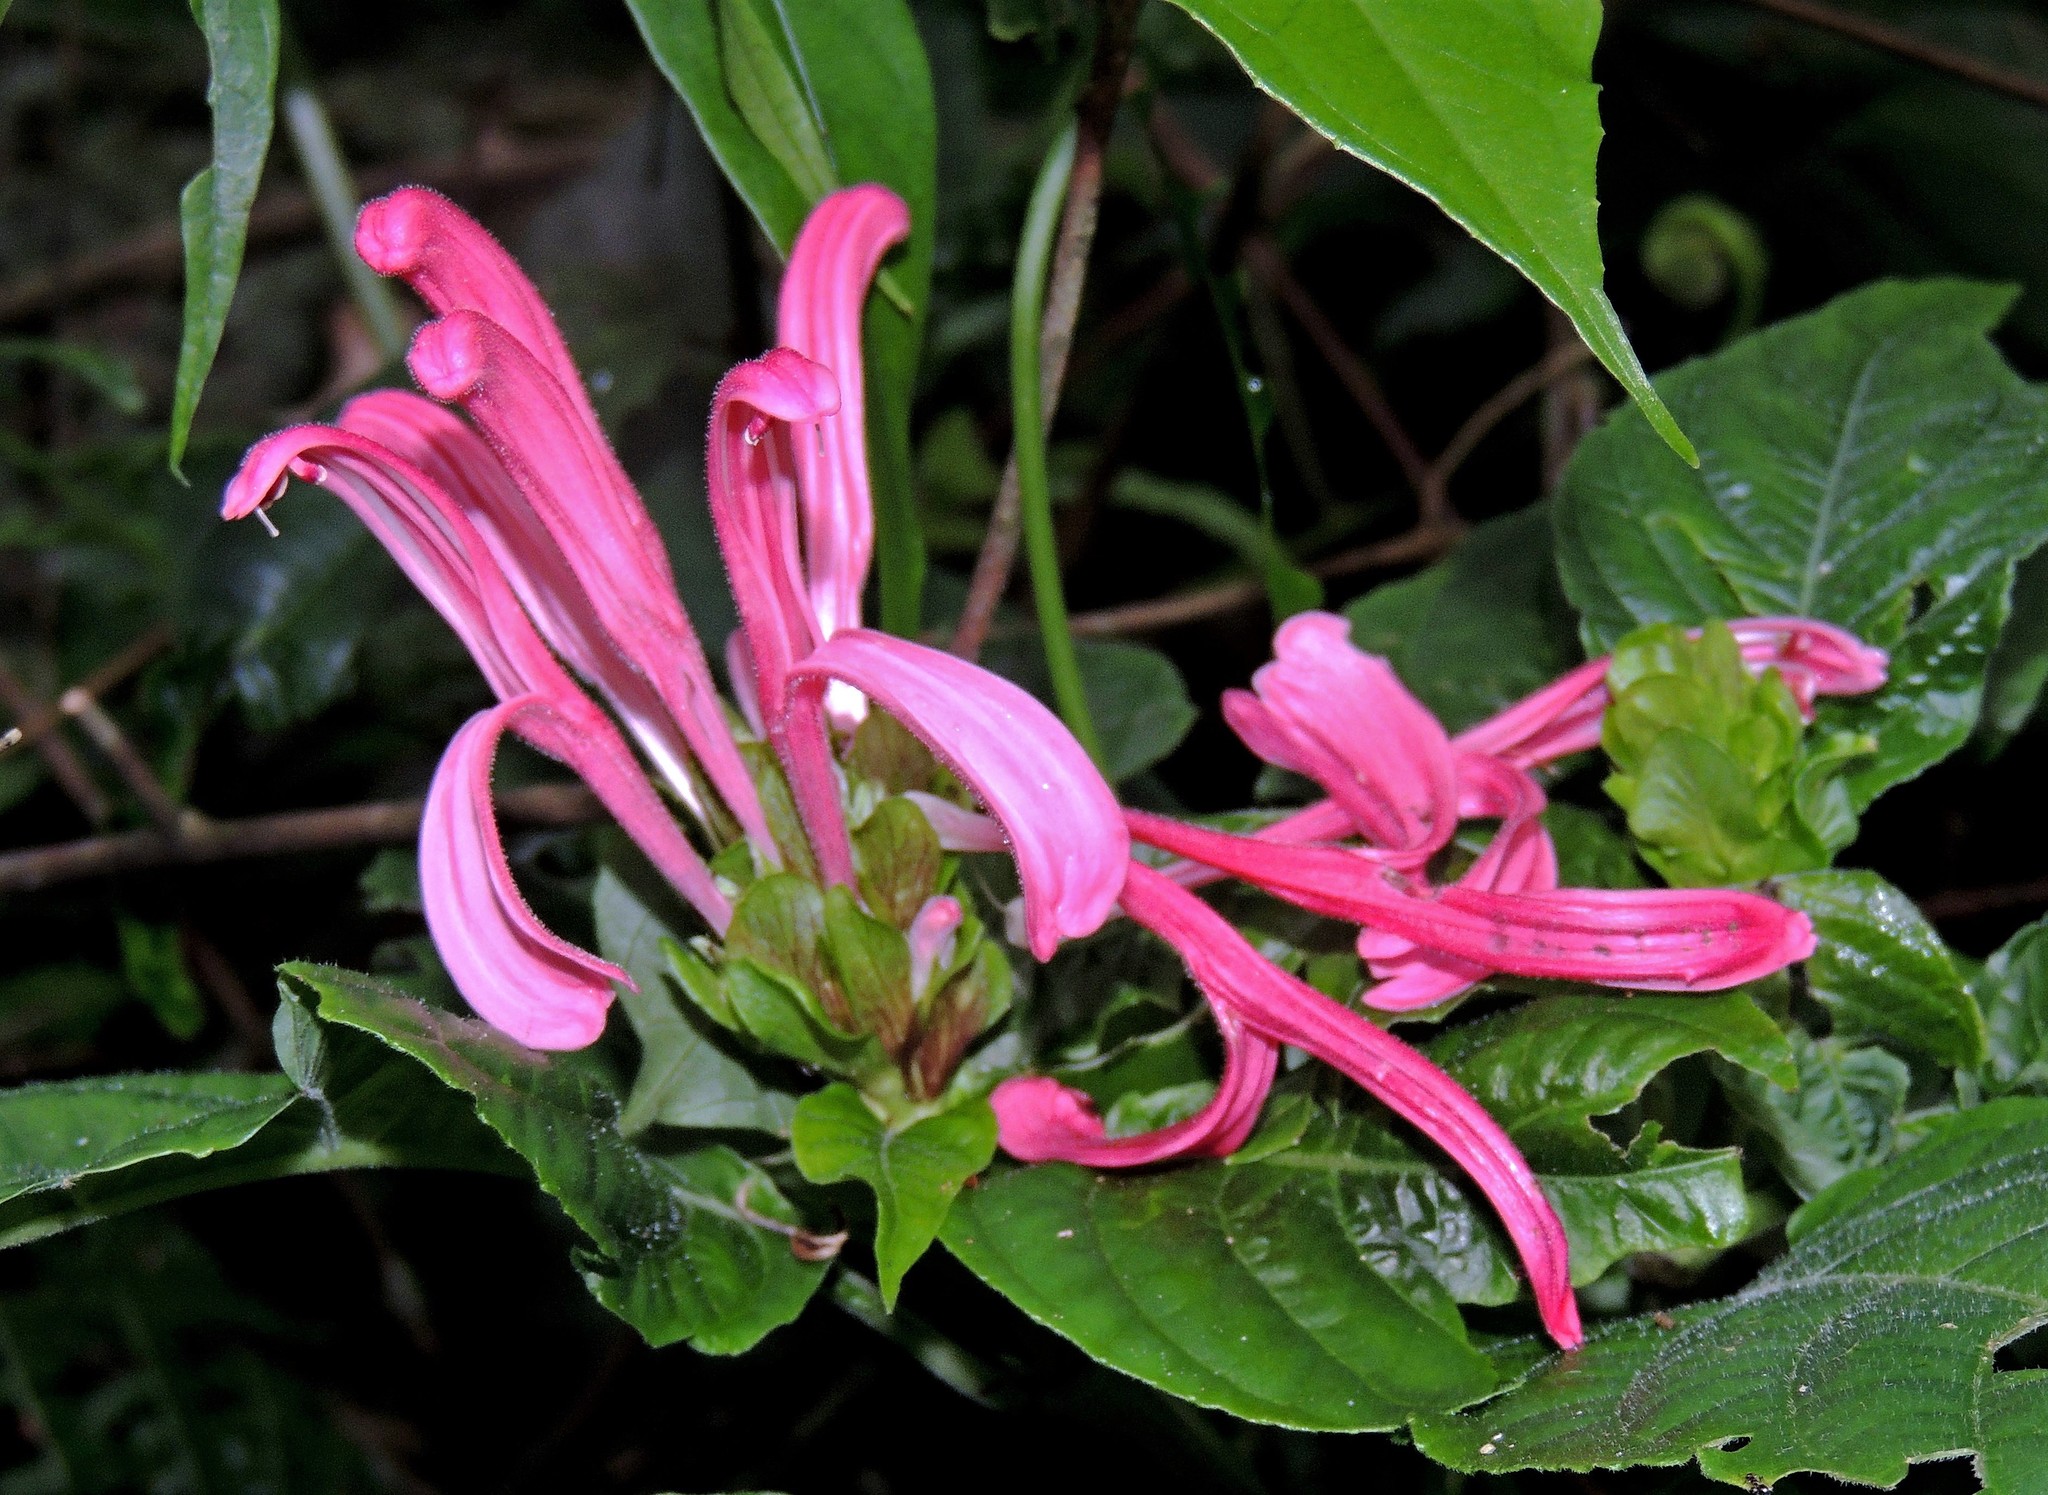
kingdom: Plantae
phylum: Tracheophyta
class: Magnoliopsida
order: Lamiales
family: Acanthaceae
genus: Justicia
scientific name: Justicia carnea
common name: Brazilian-plume
